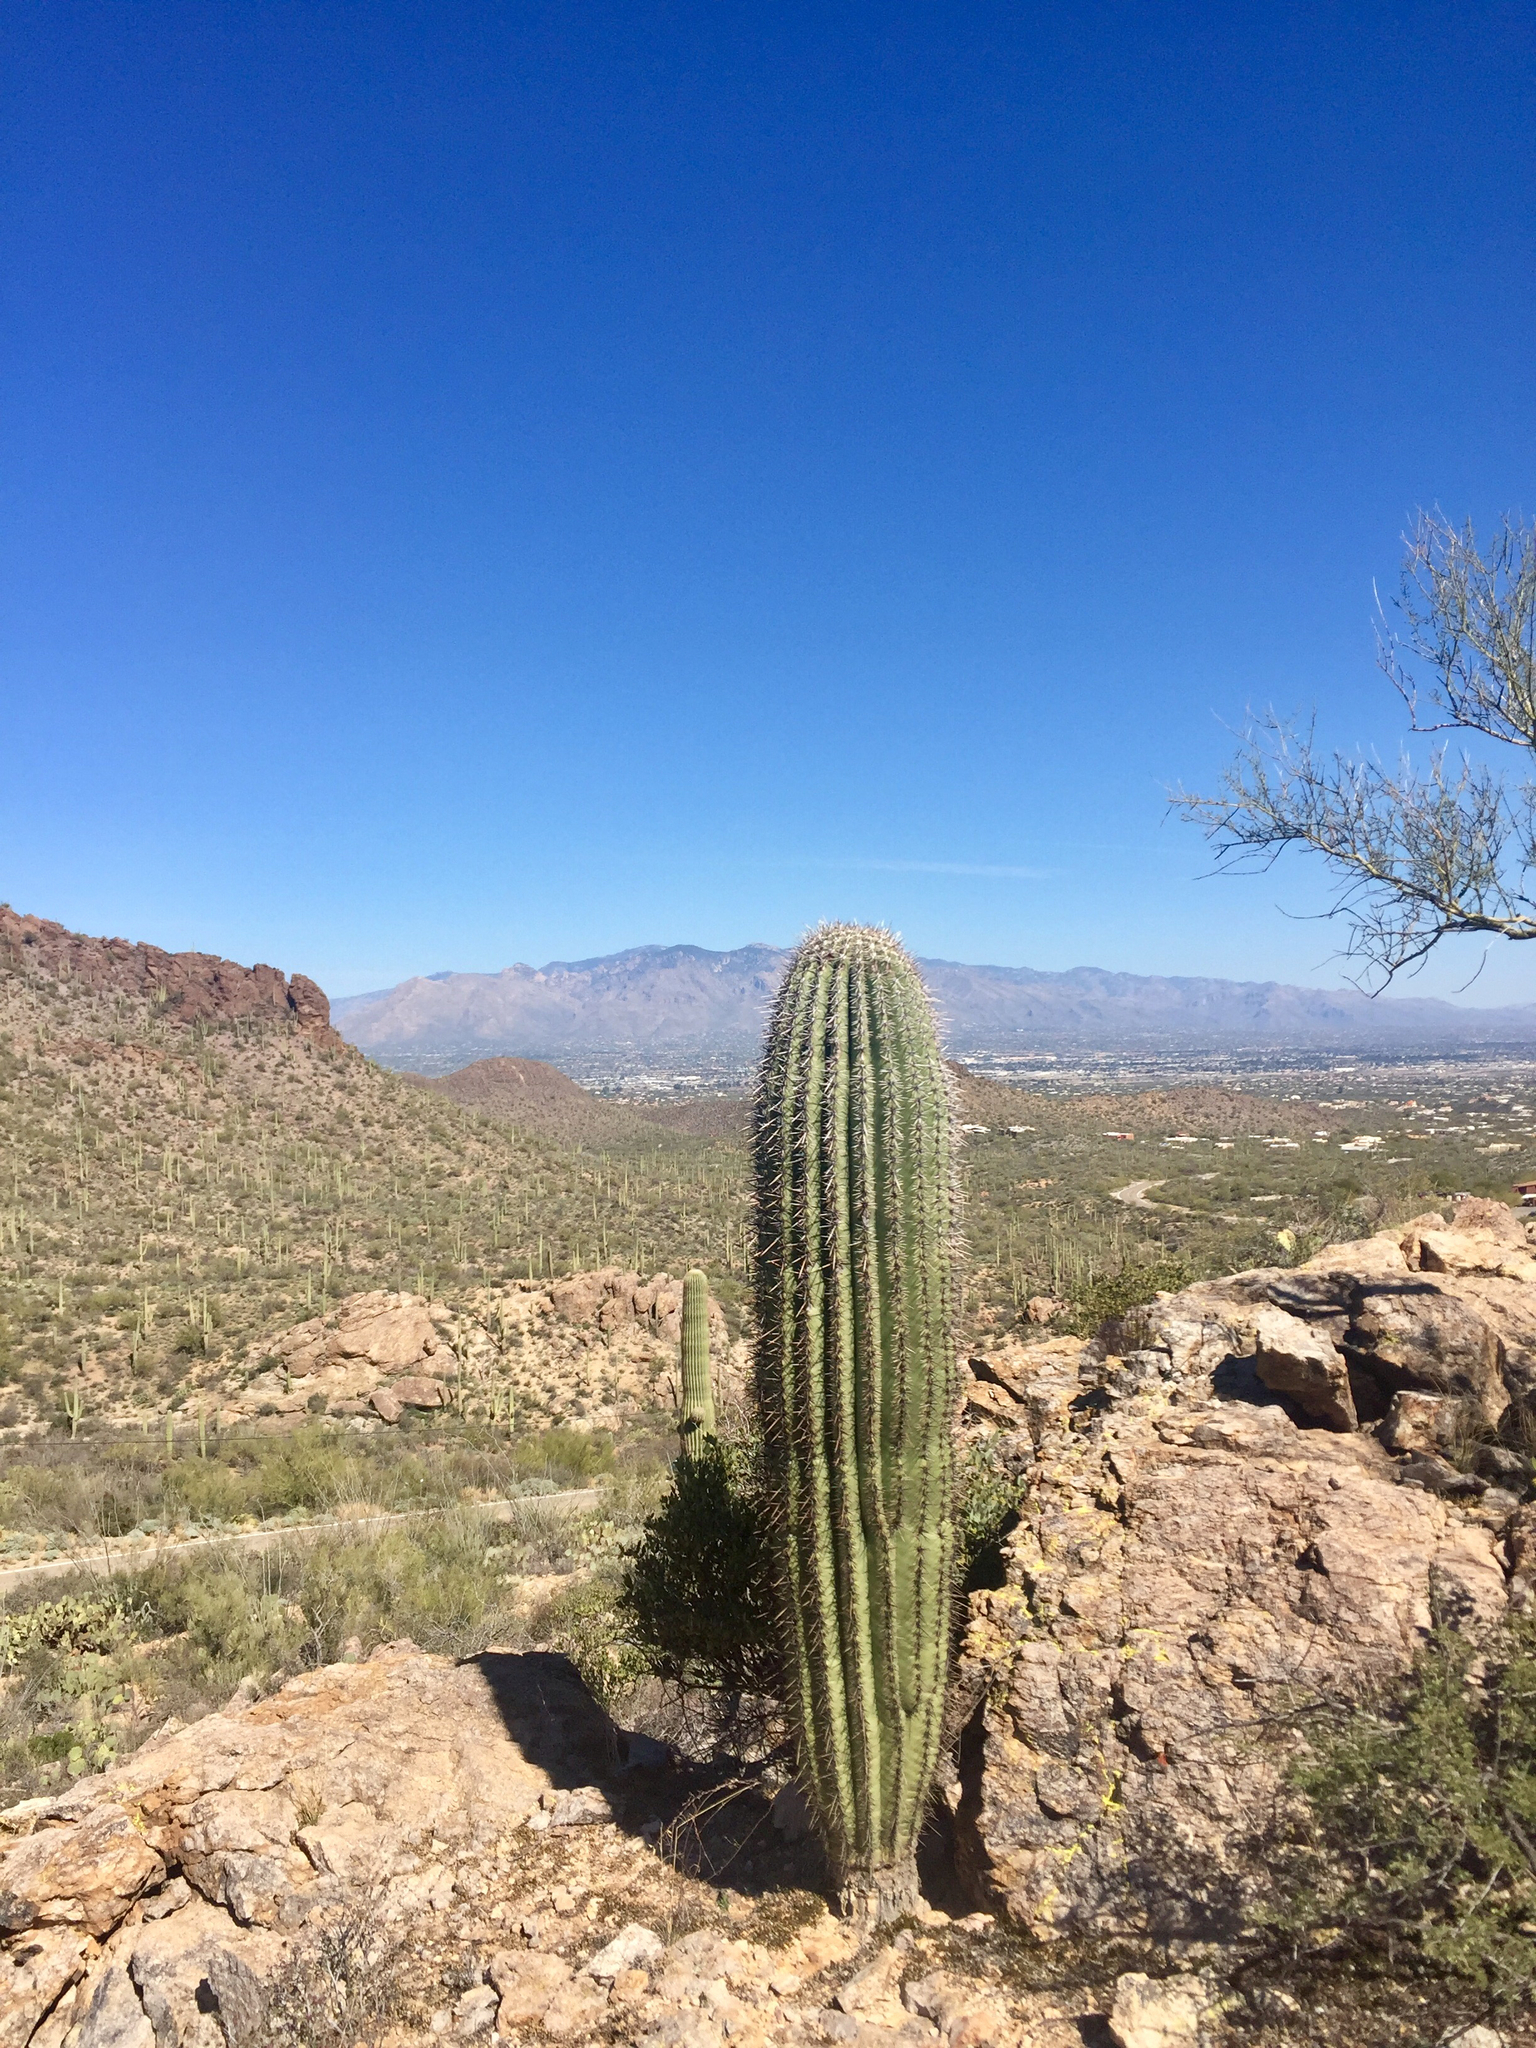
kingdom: Plantae
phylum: Tracheophyta
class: Magnoliopsida
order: Caryophyllales
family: Cactaceae
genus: Carnegiea
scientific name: Carnegiea gigantea
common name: Saguaro
